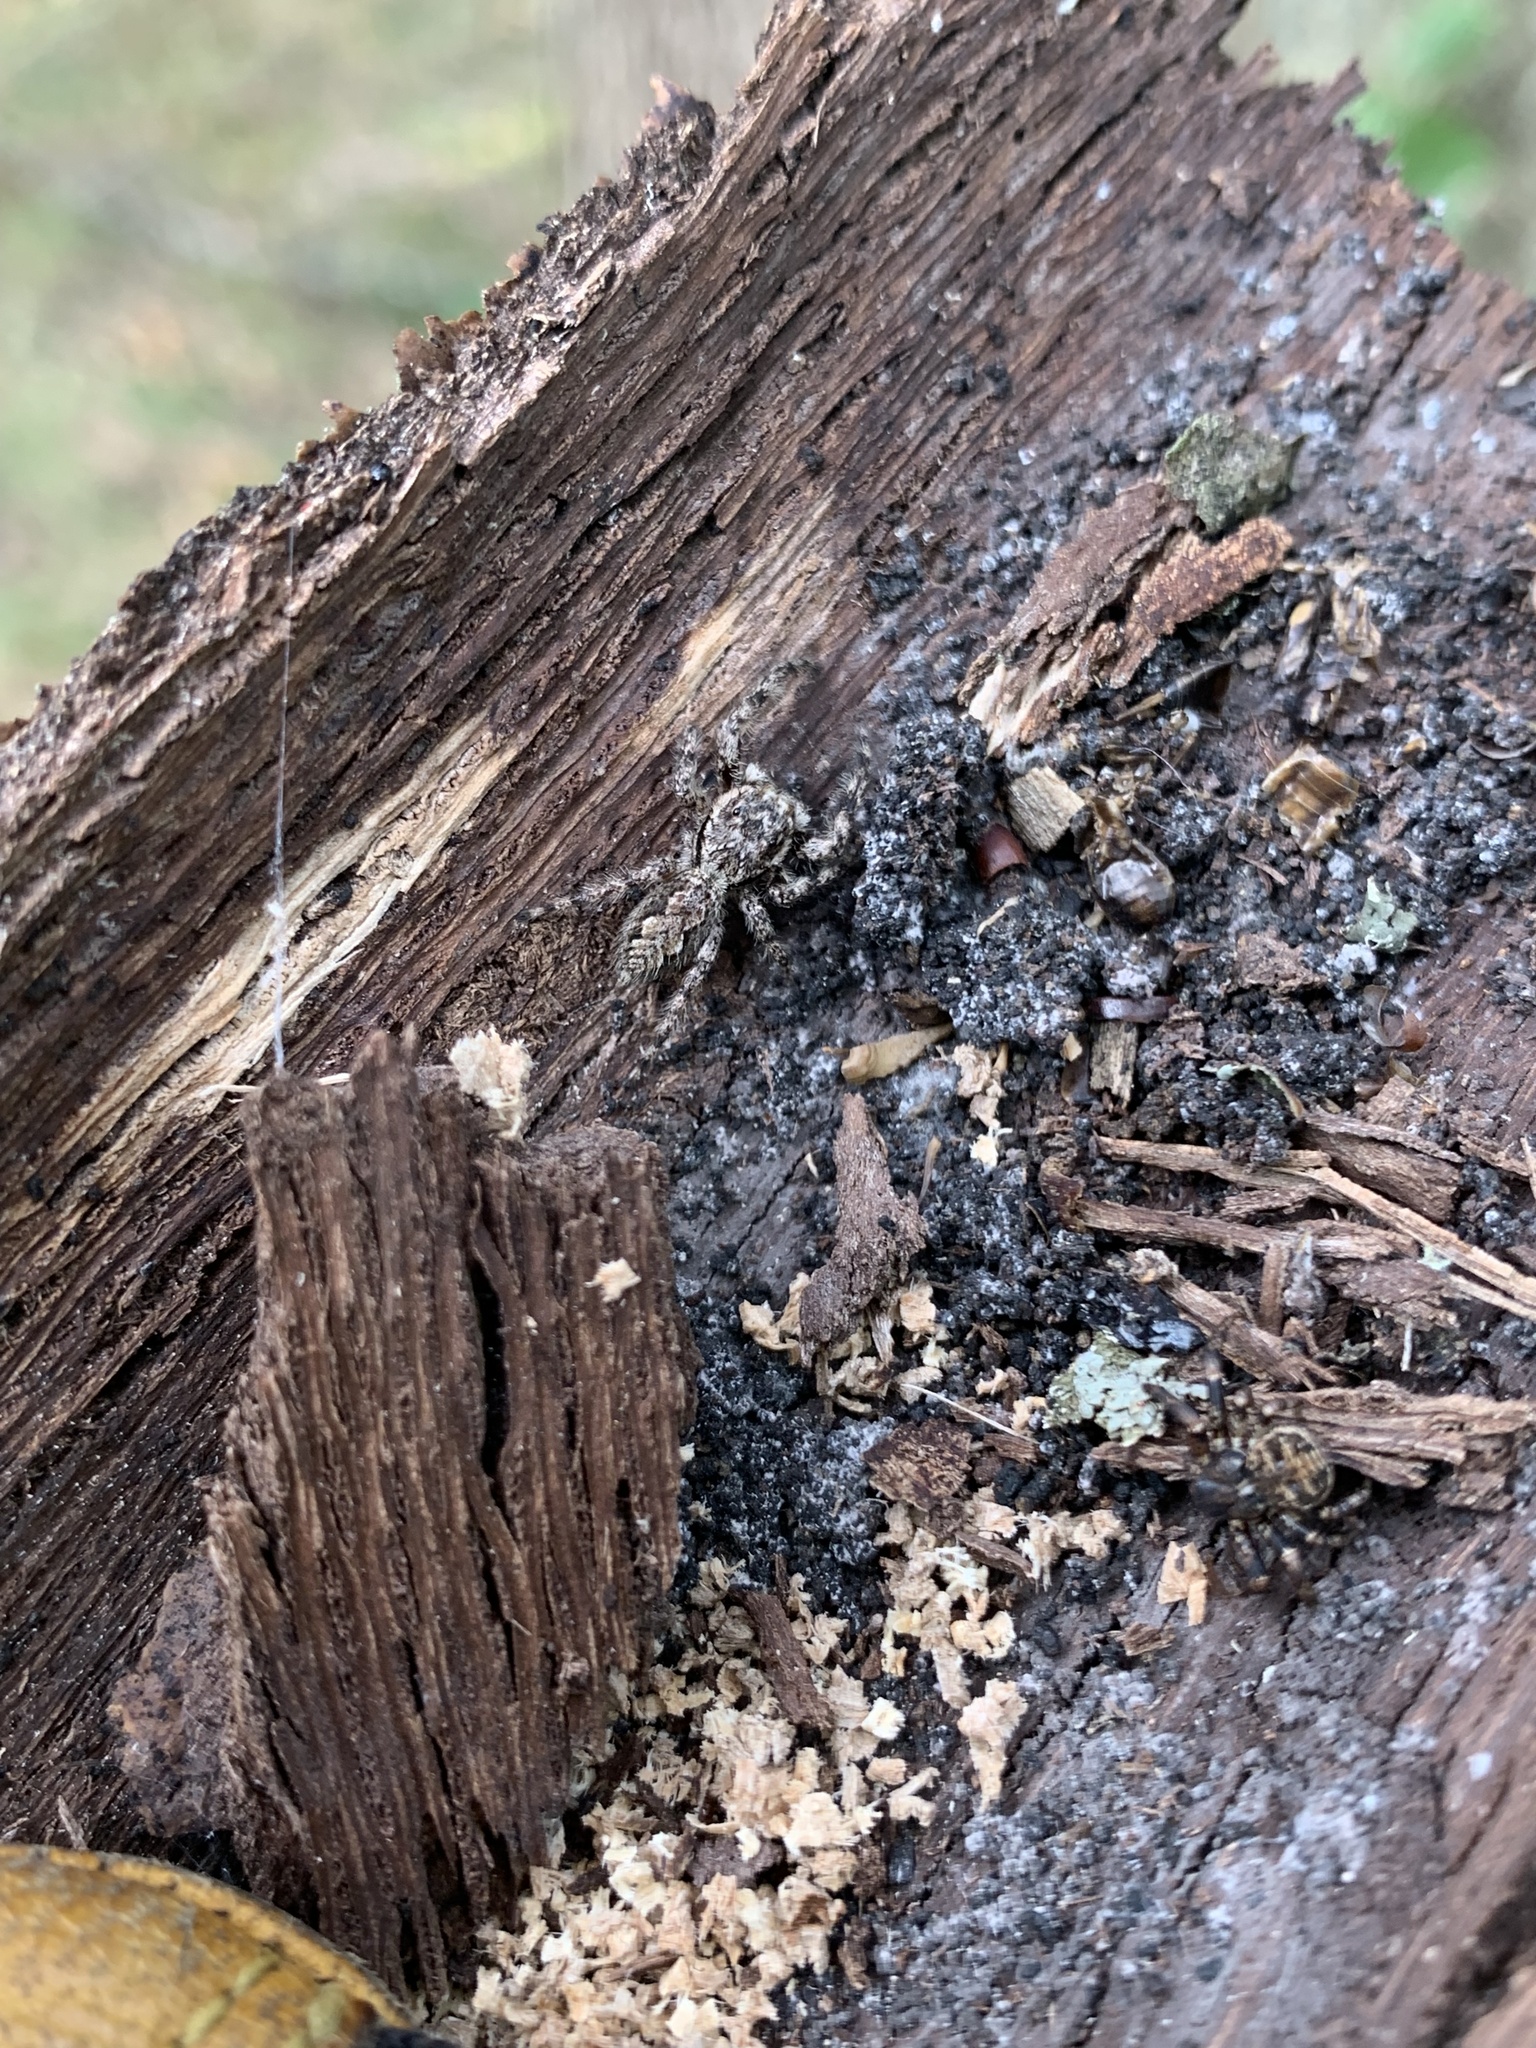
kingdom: Animalia
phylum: Arthropoda
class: Arachnida
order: Araneae
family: Salticidae
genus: Platycryptus
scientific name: Platycryptus undatus
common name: Tan jumping spider
